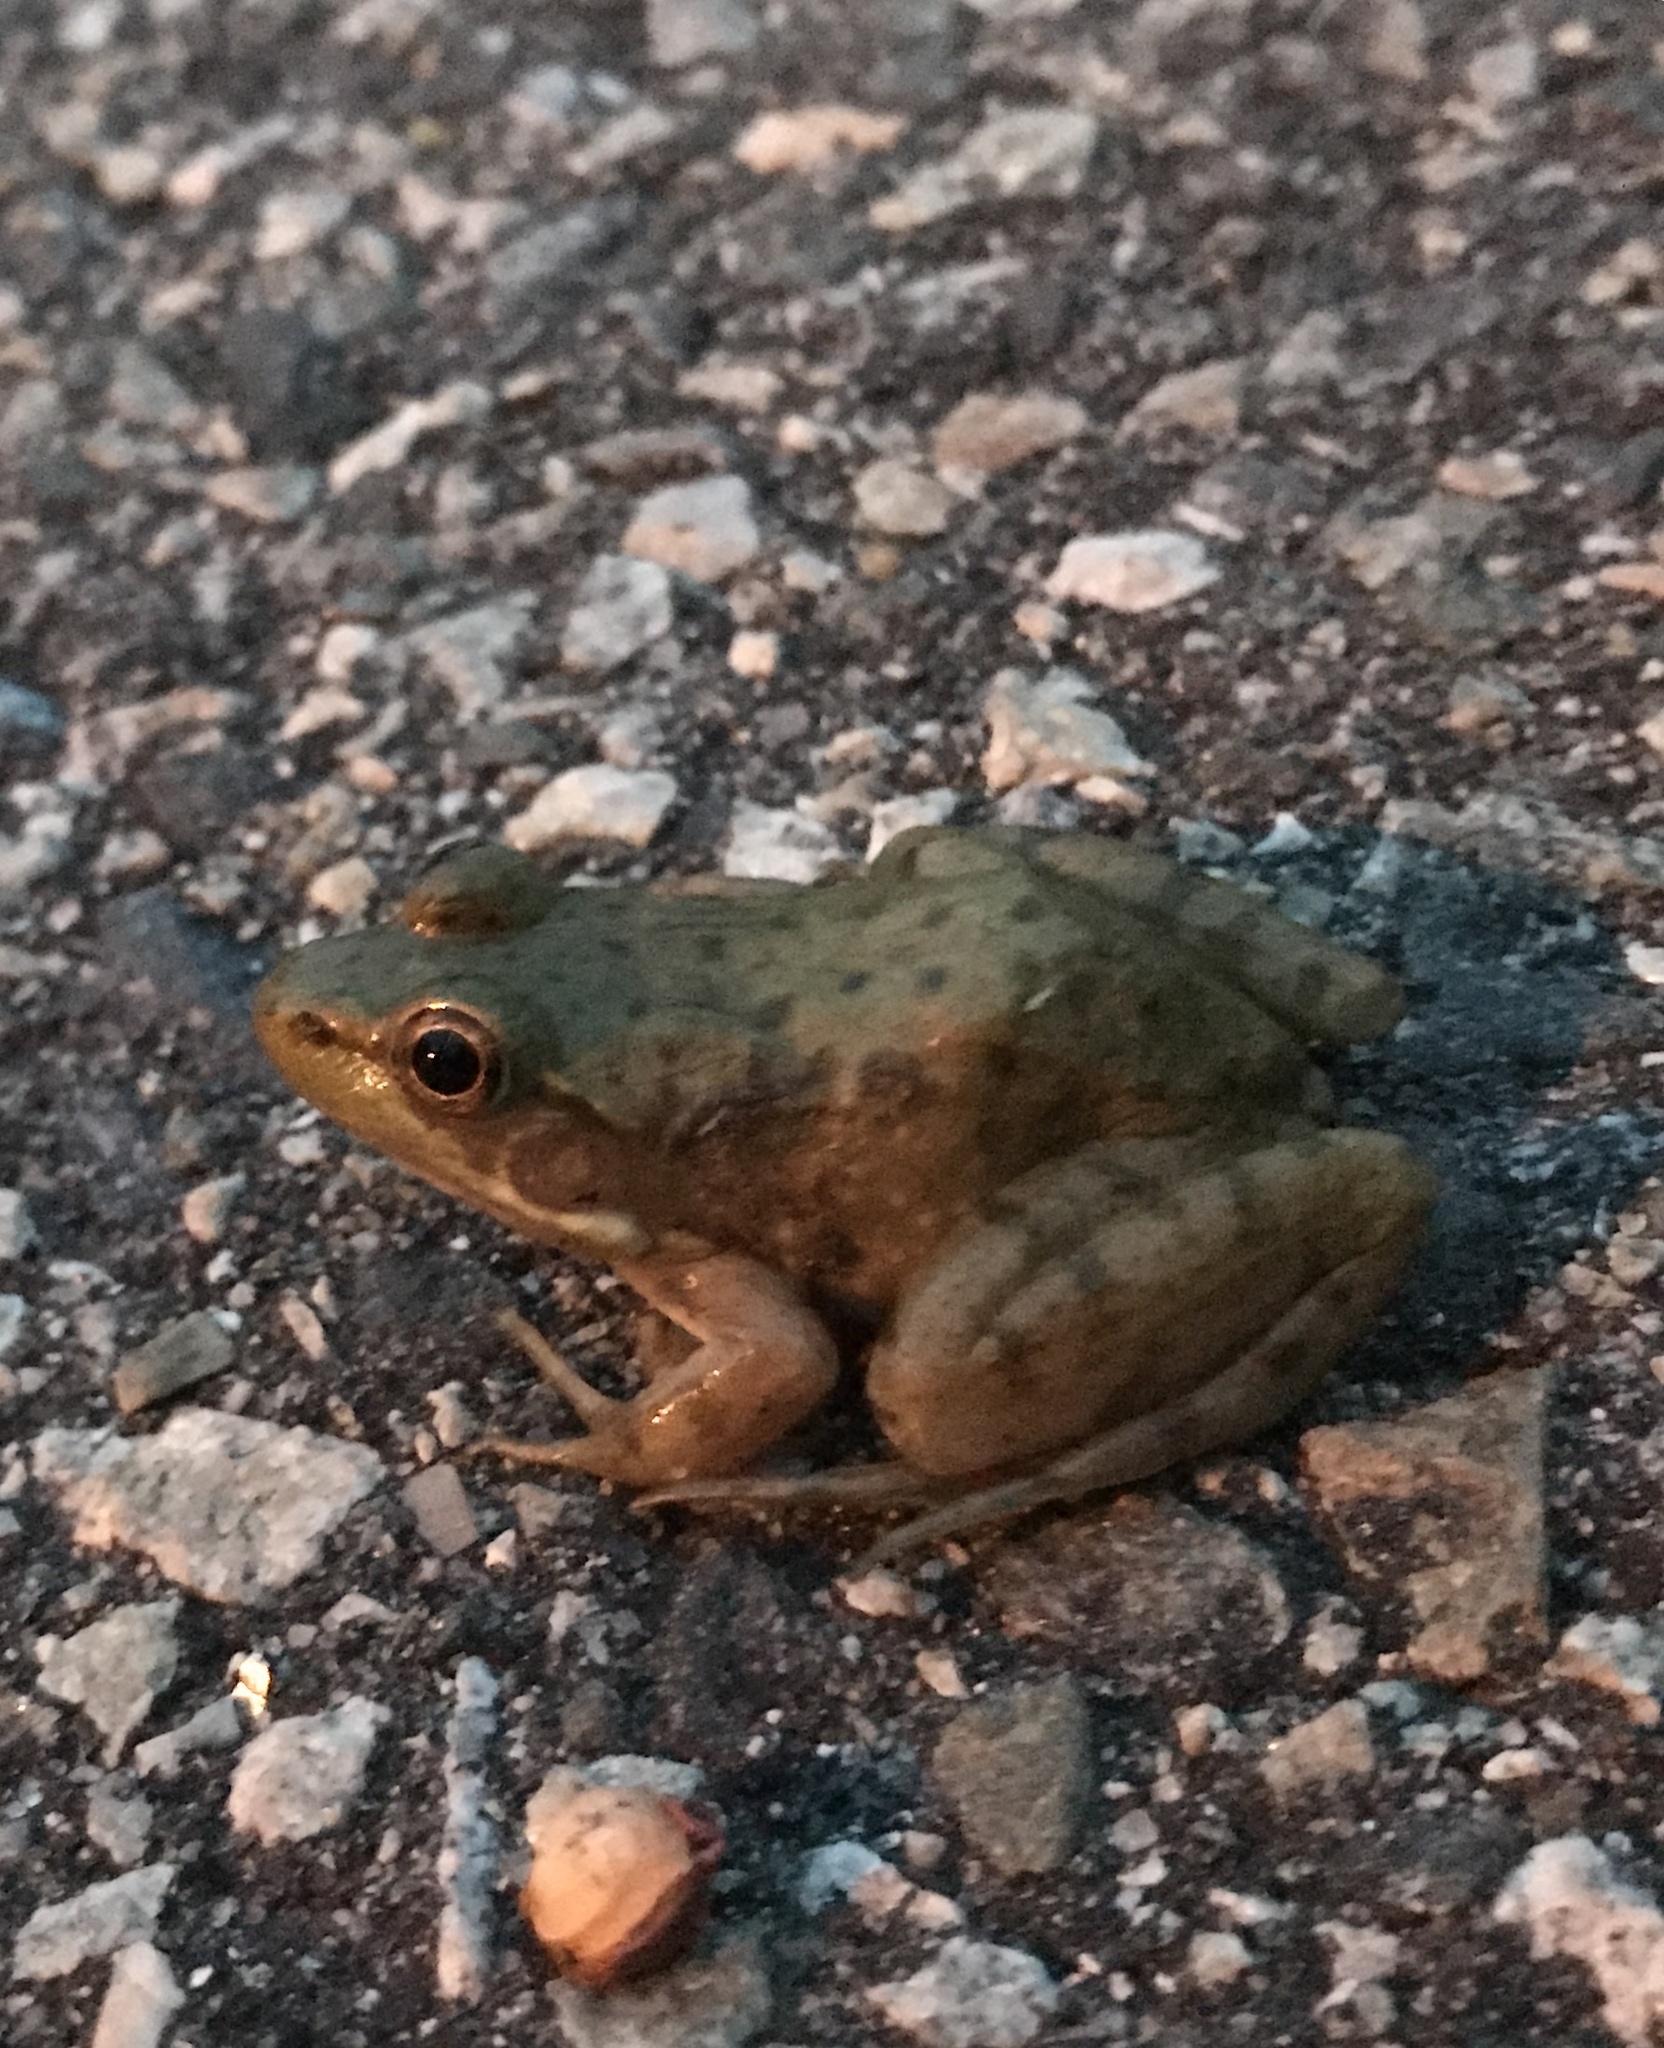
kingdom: Animalia
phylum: Chordata
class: Amphibia
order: Anura
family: Ranidae
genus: Lithobates
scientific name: Lithobates clamitans
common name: Green frog
